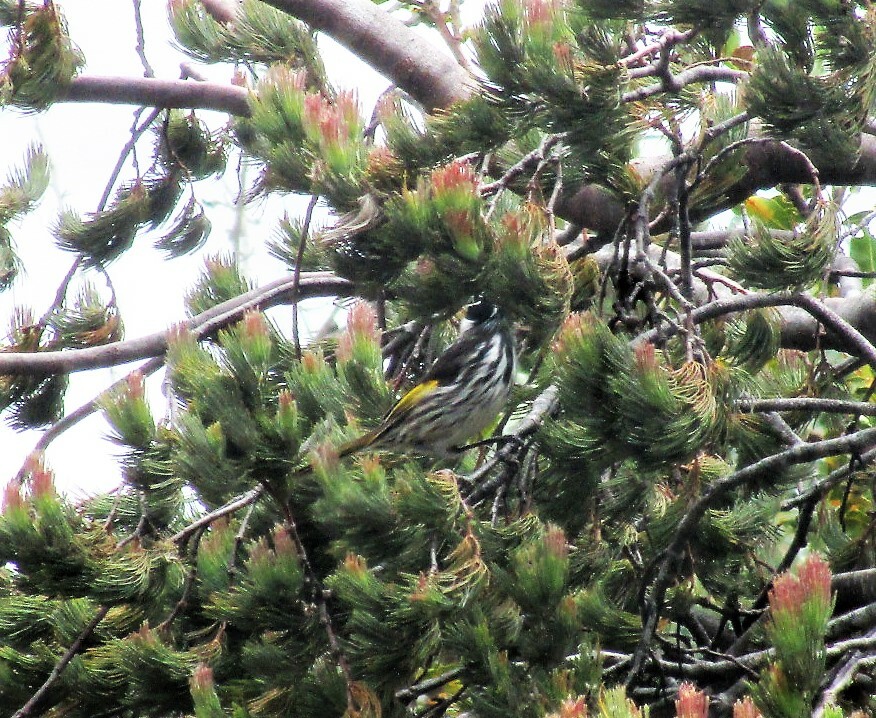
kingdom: Animalia
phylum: Chordata
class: Aves
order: Passeriformes
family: Meliphagidae
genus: Phylidonyris
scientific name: Phylidonyris novaehollandiae
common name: New holland honeyeater
